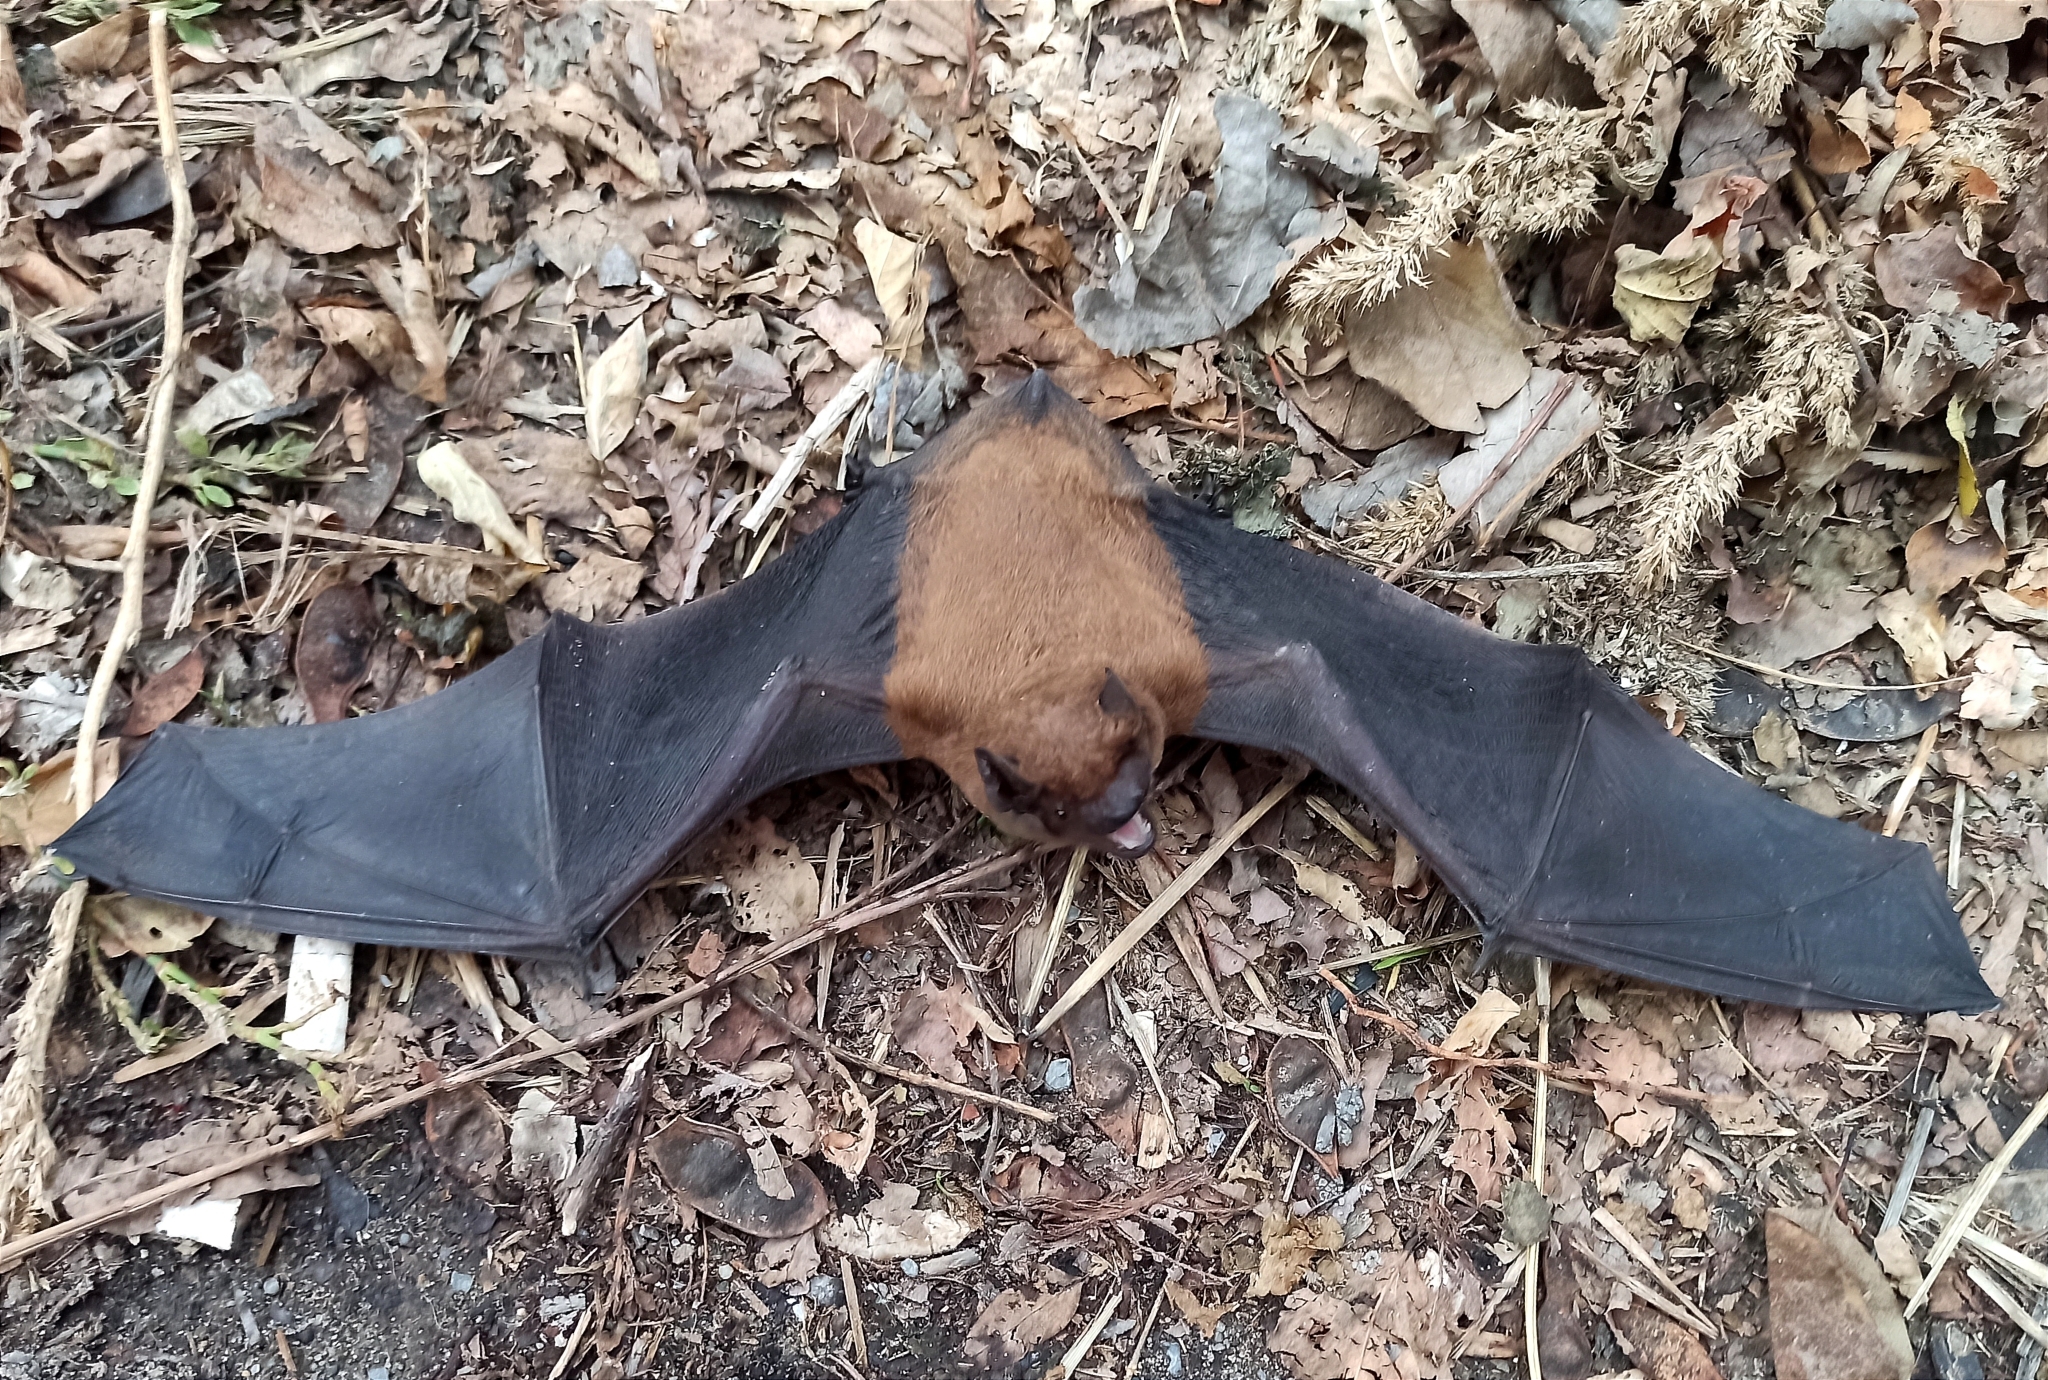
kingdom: Animalia
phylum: Chordata
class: Mammalia
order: Chiroptera
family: Vespertilionidae
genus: Nyctalus
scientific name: Nyctalus noctula
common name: Noctule
